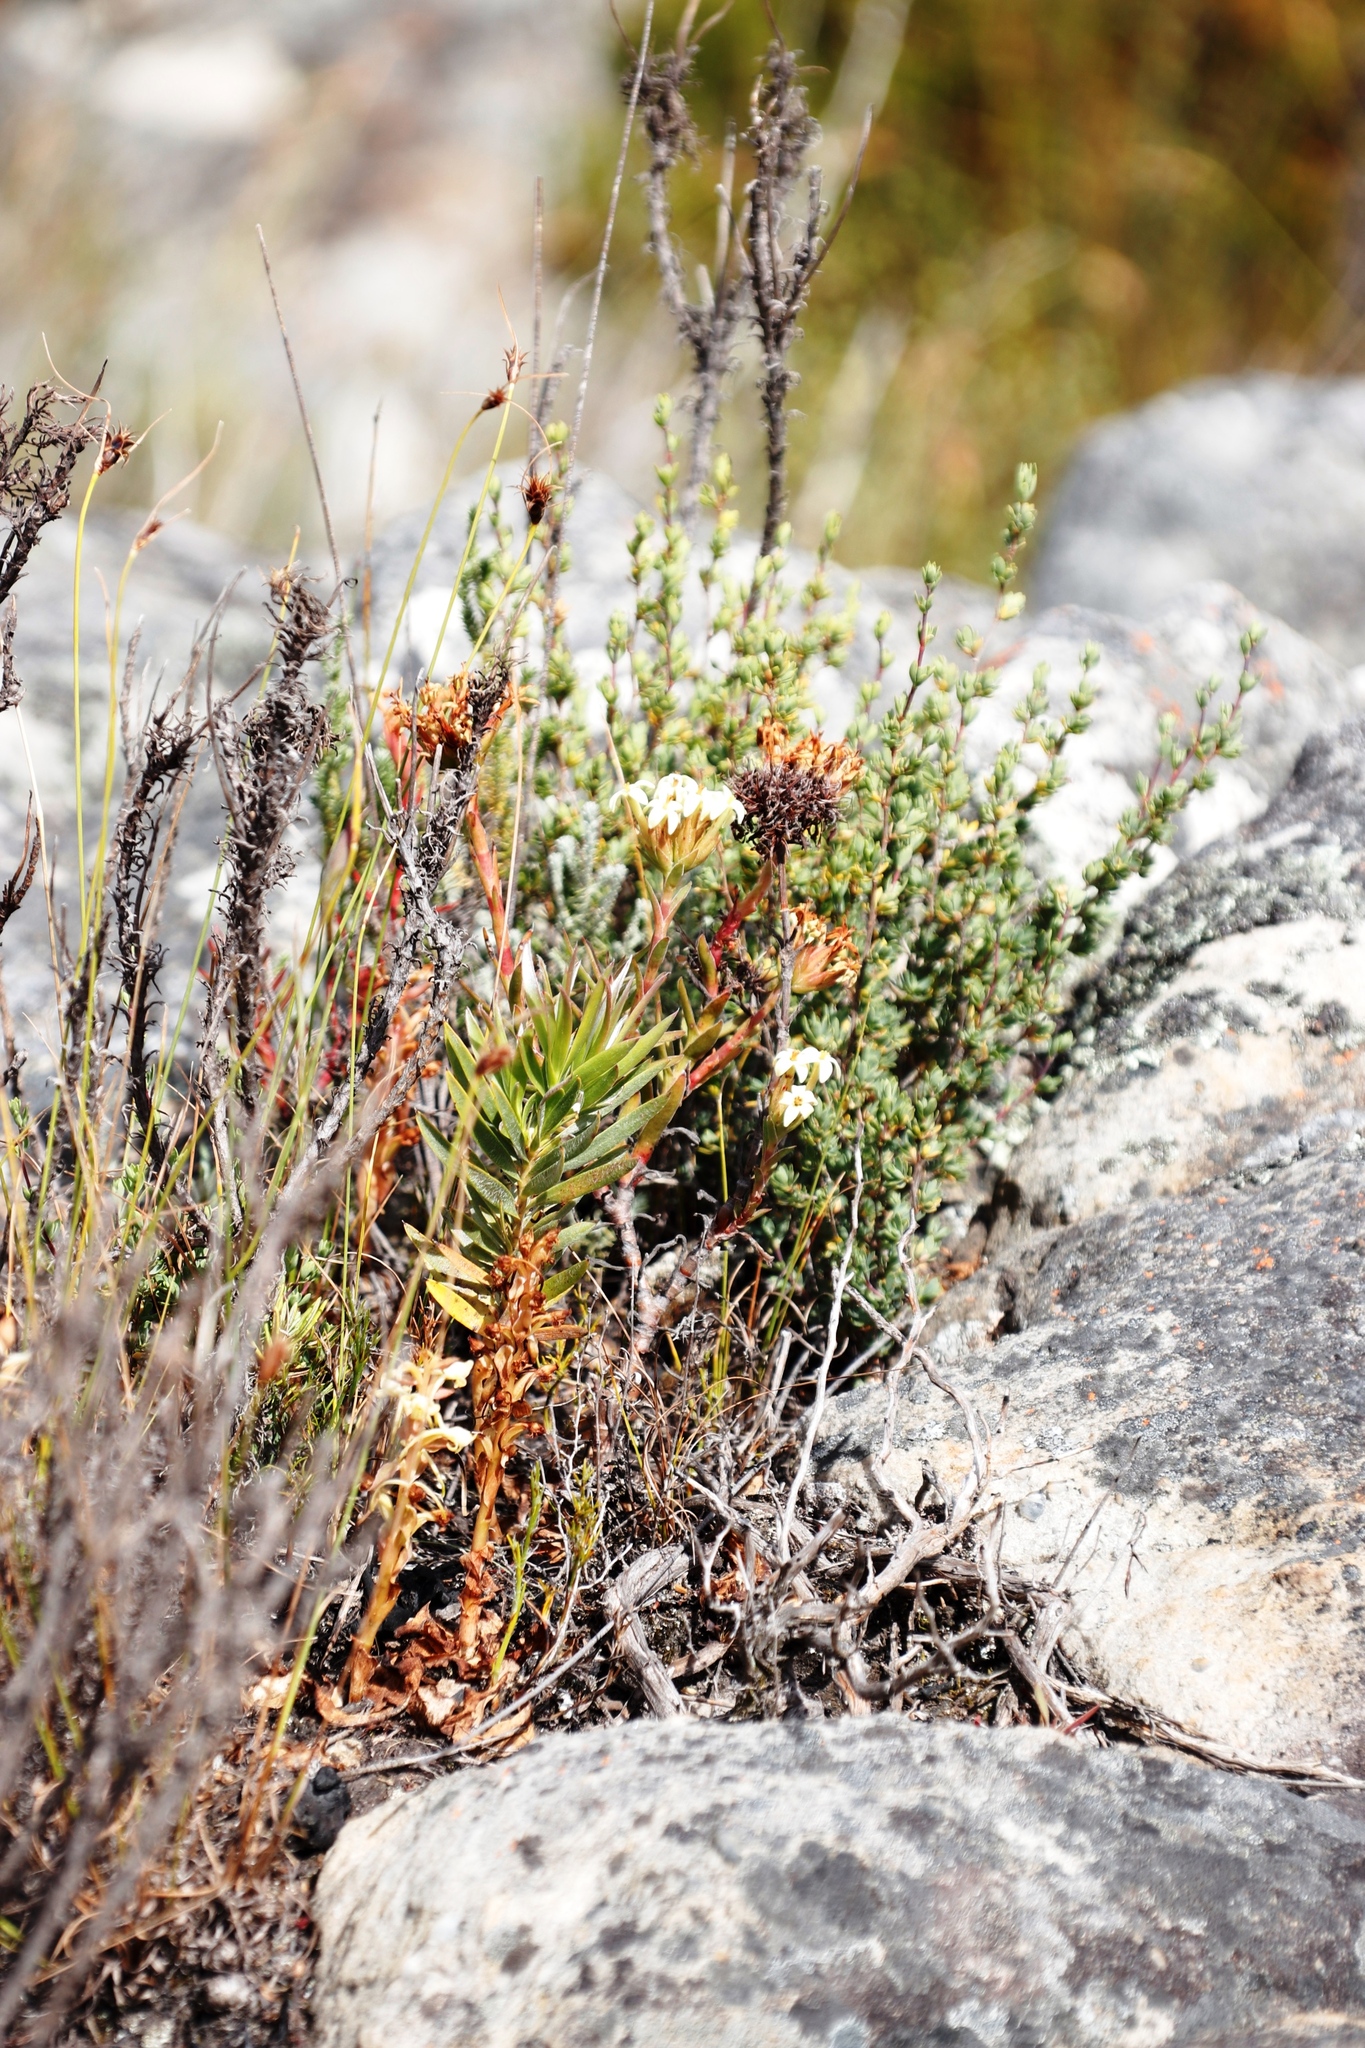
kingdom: Plantae
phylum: Tracheophyta
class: Magnoliopsida
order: Saxifragales
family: Crassulaceae
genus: Crassula
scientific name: Crassula fascicularis
